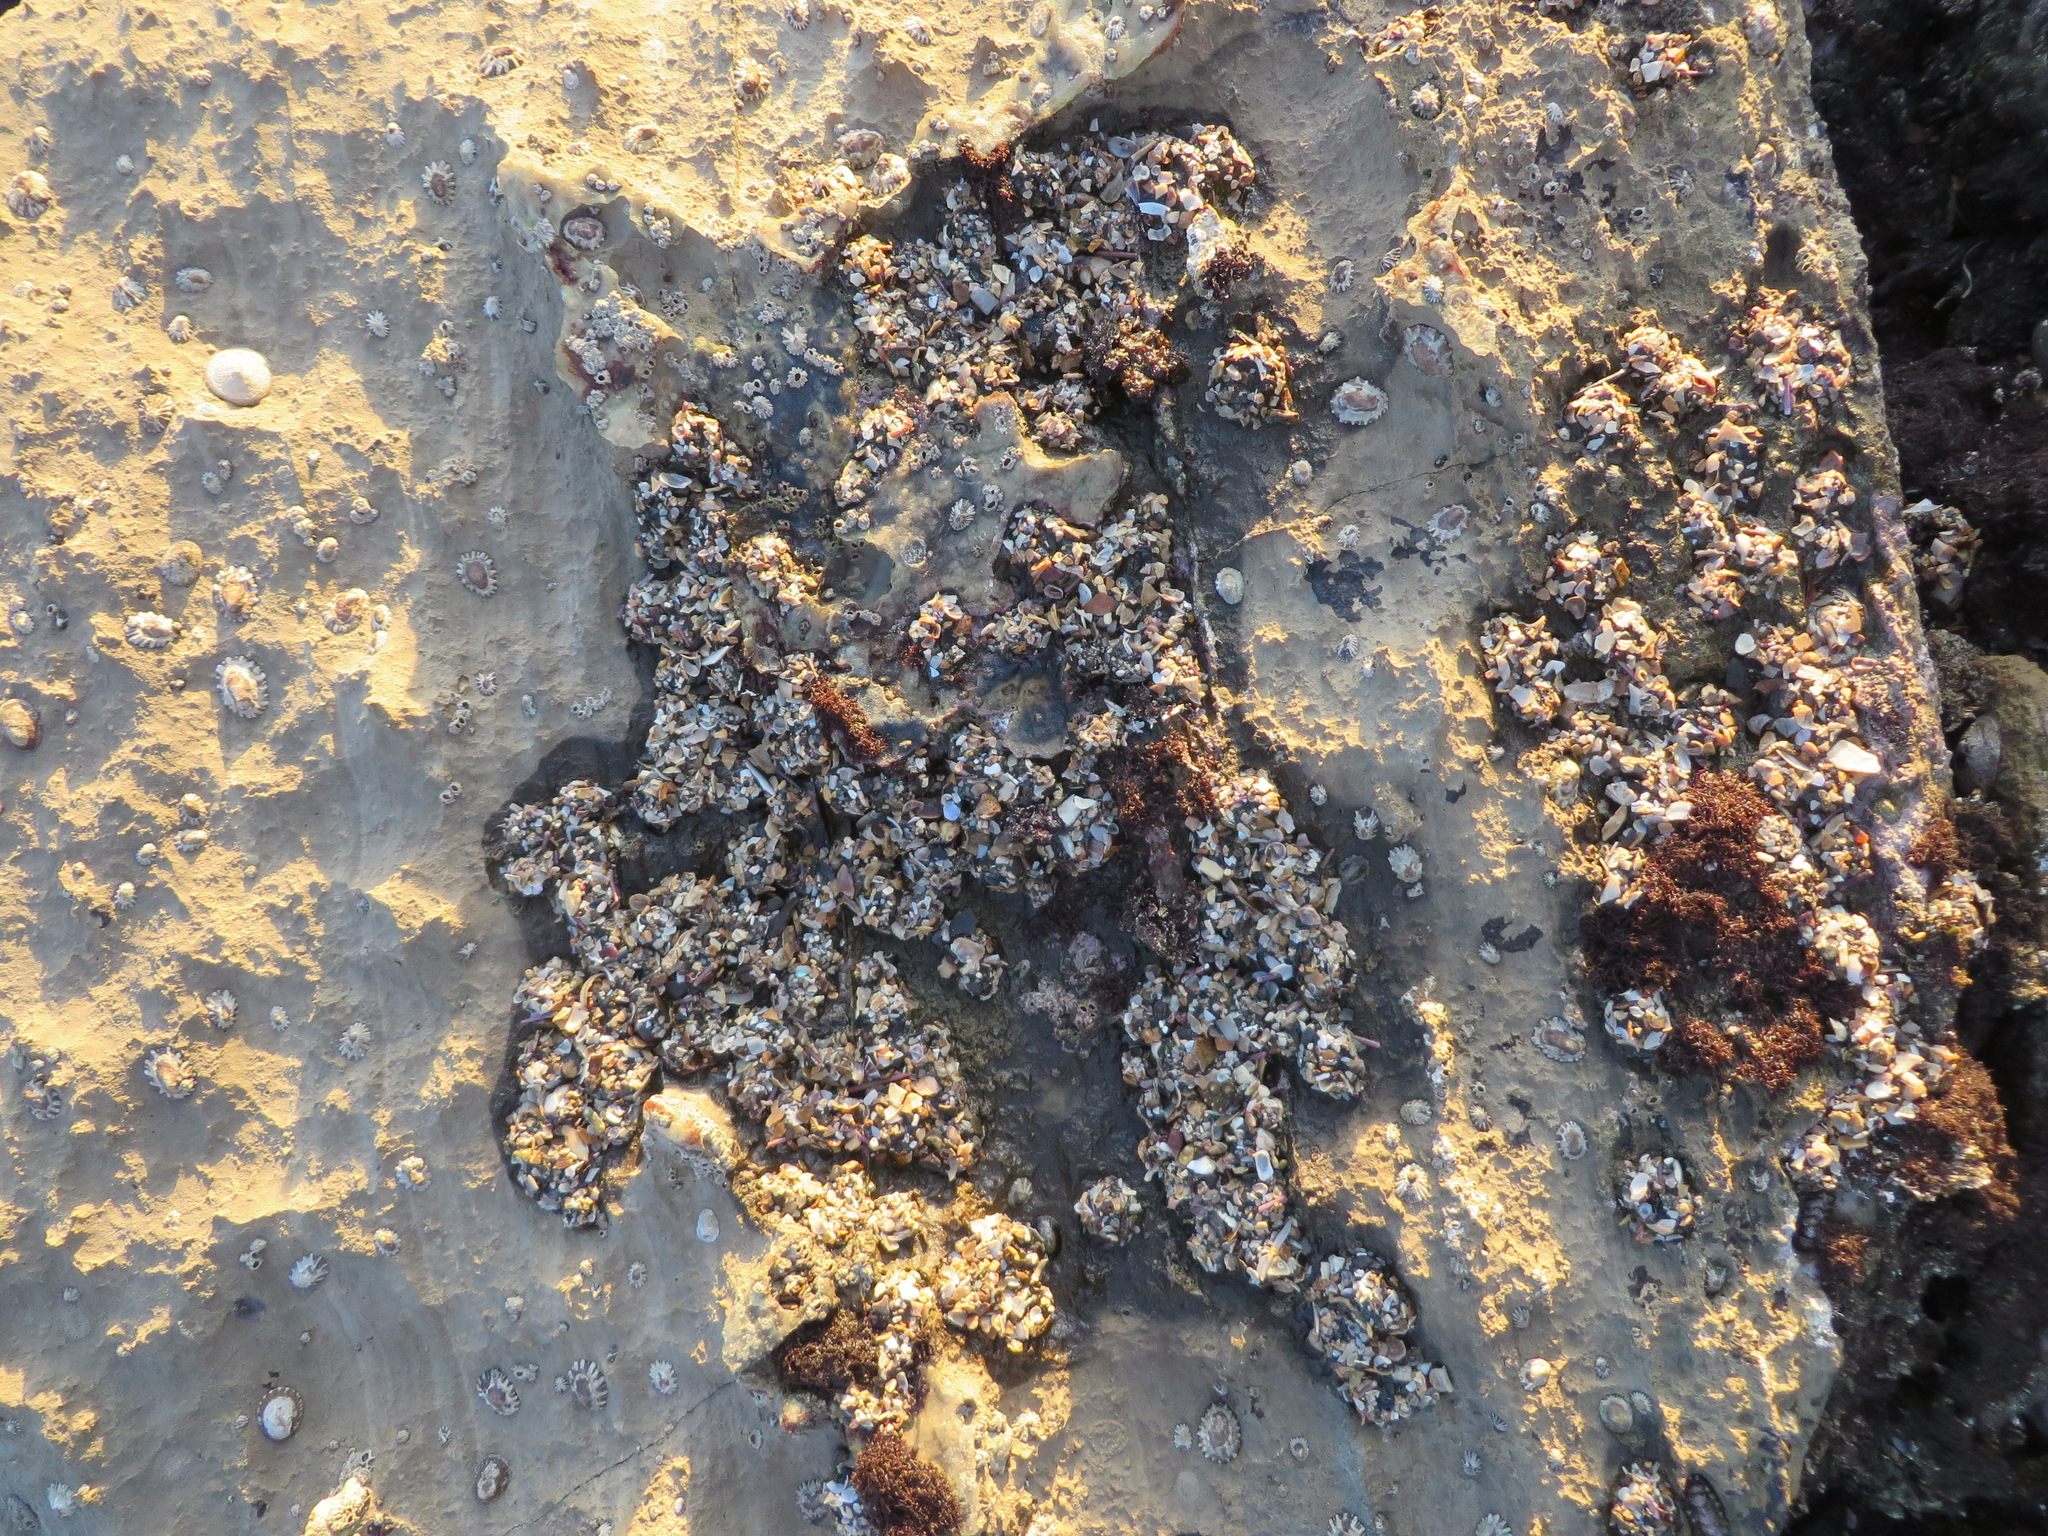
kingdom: Animalia
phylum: Cnidaria
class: Anthozoa
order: Actiniaria
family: Actiniidae
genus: Anthopleura
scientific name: Anthopleura elegantissima
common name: Clonal anemone
